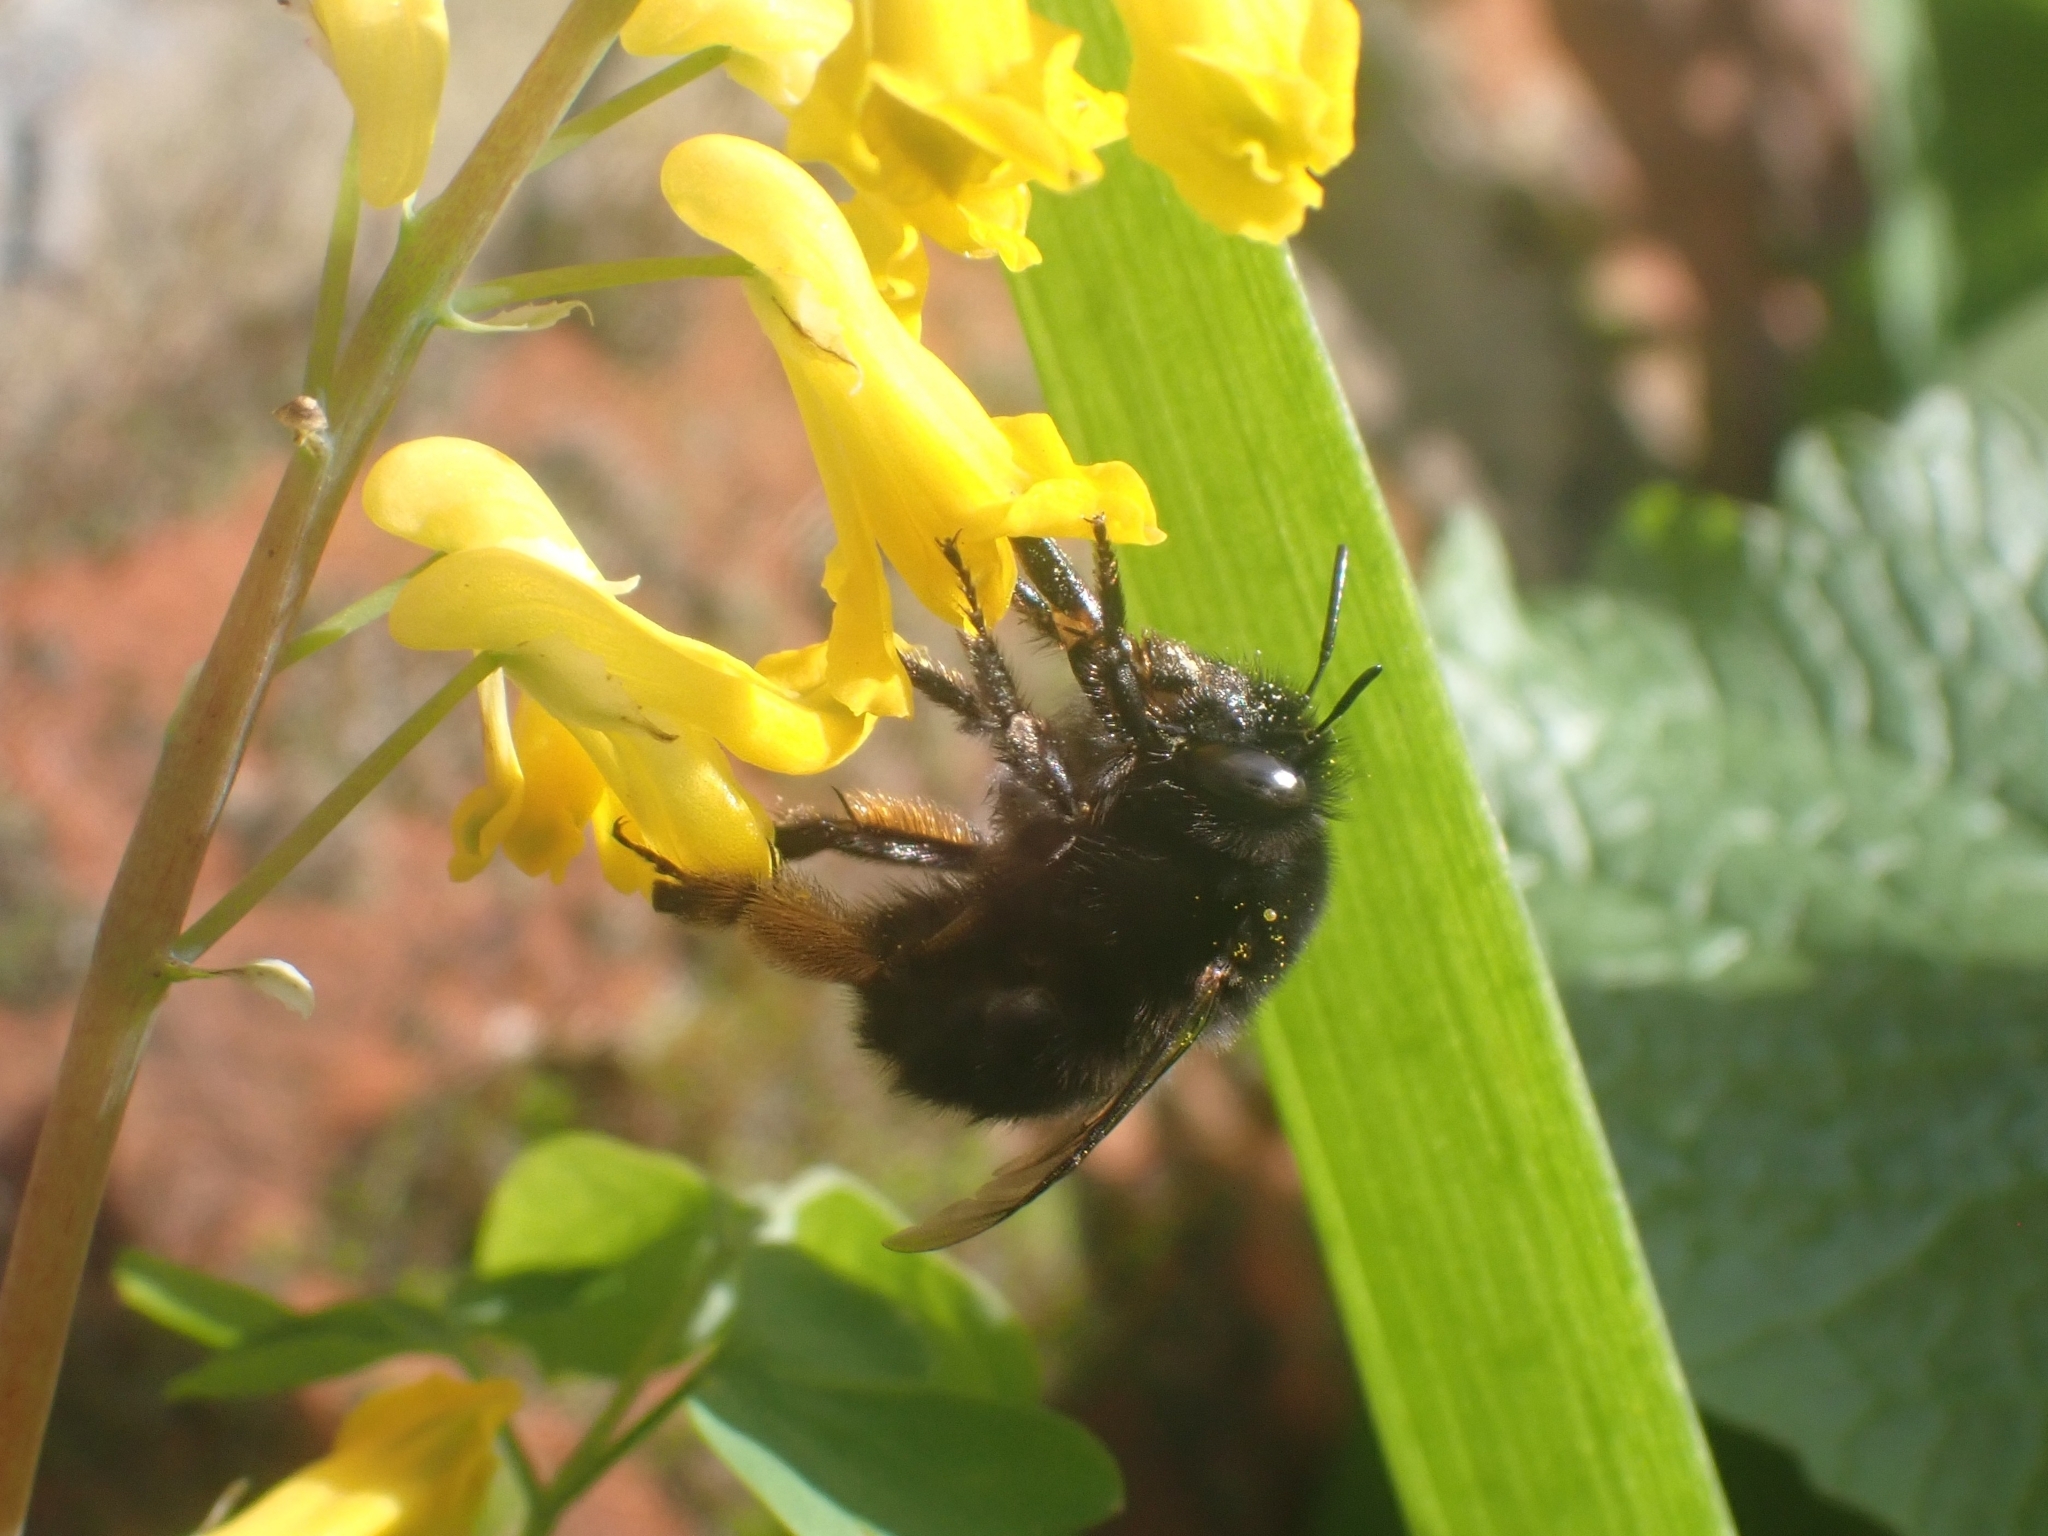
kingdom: Animalia
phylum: Arthropoda
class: Insecta
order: Hymenoptera
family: Apidae
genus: Anthophora
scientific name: Anthophora plumipes
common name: Hairy-footed flower bee
